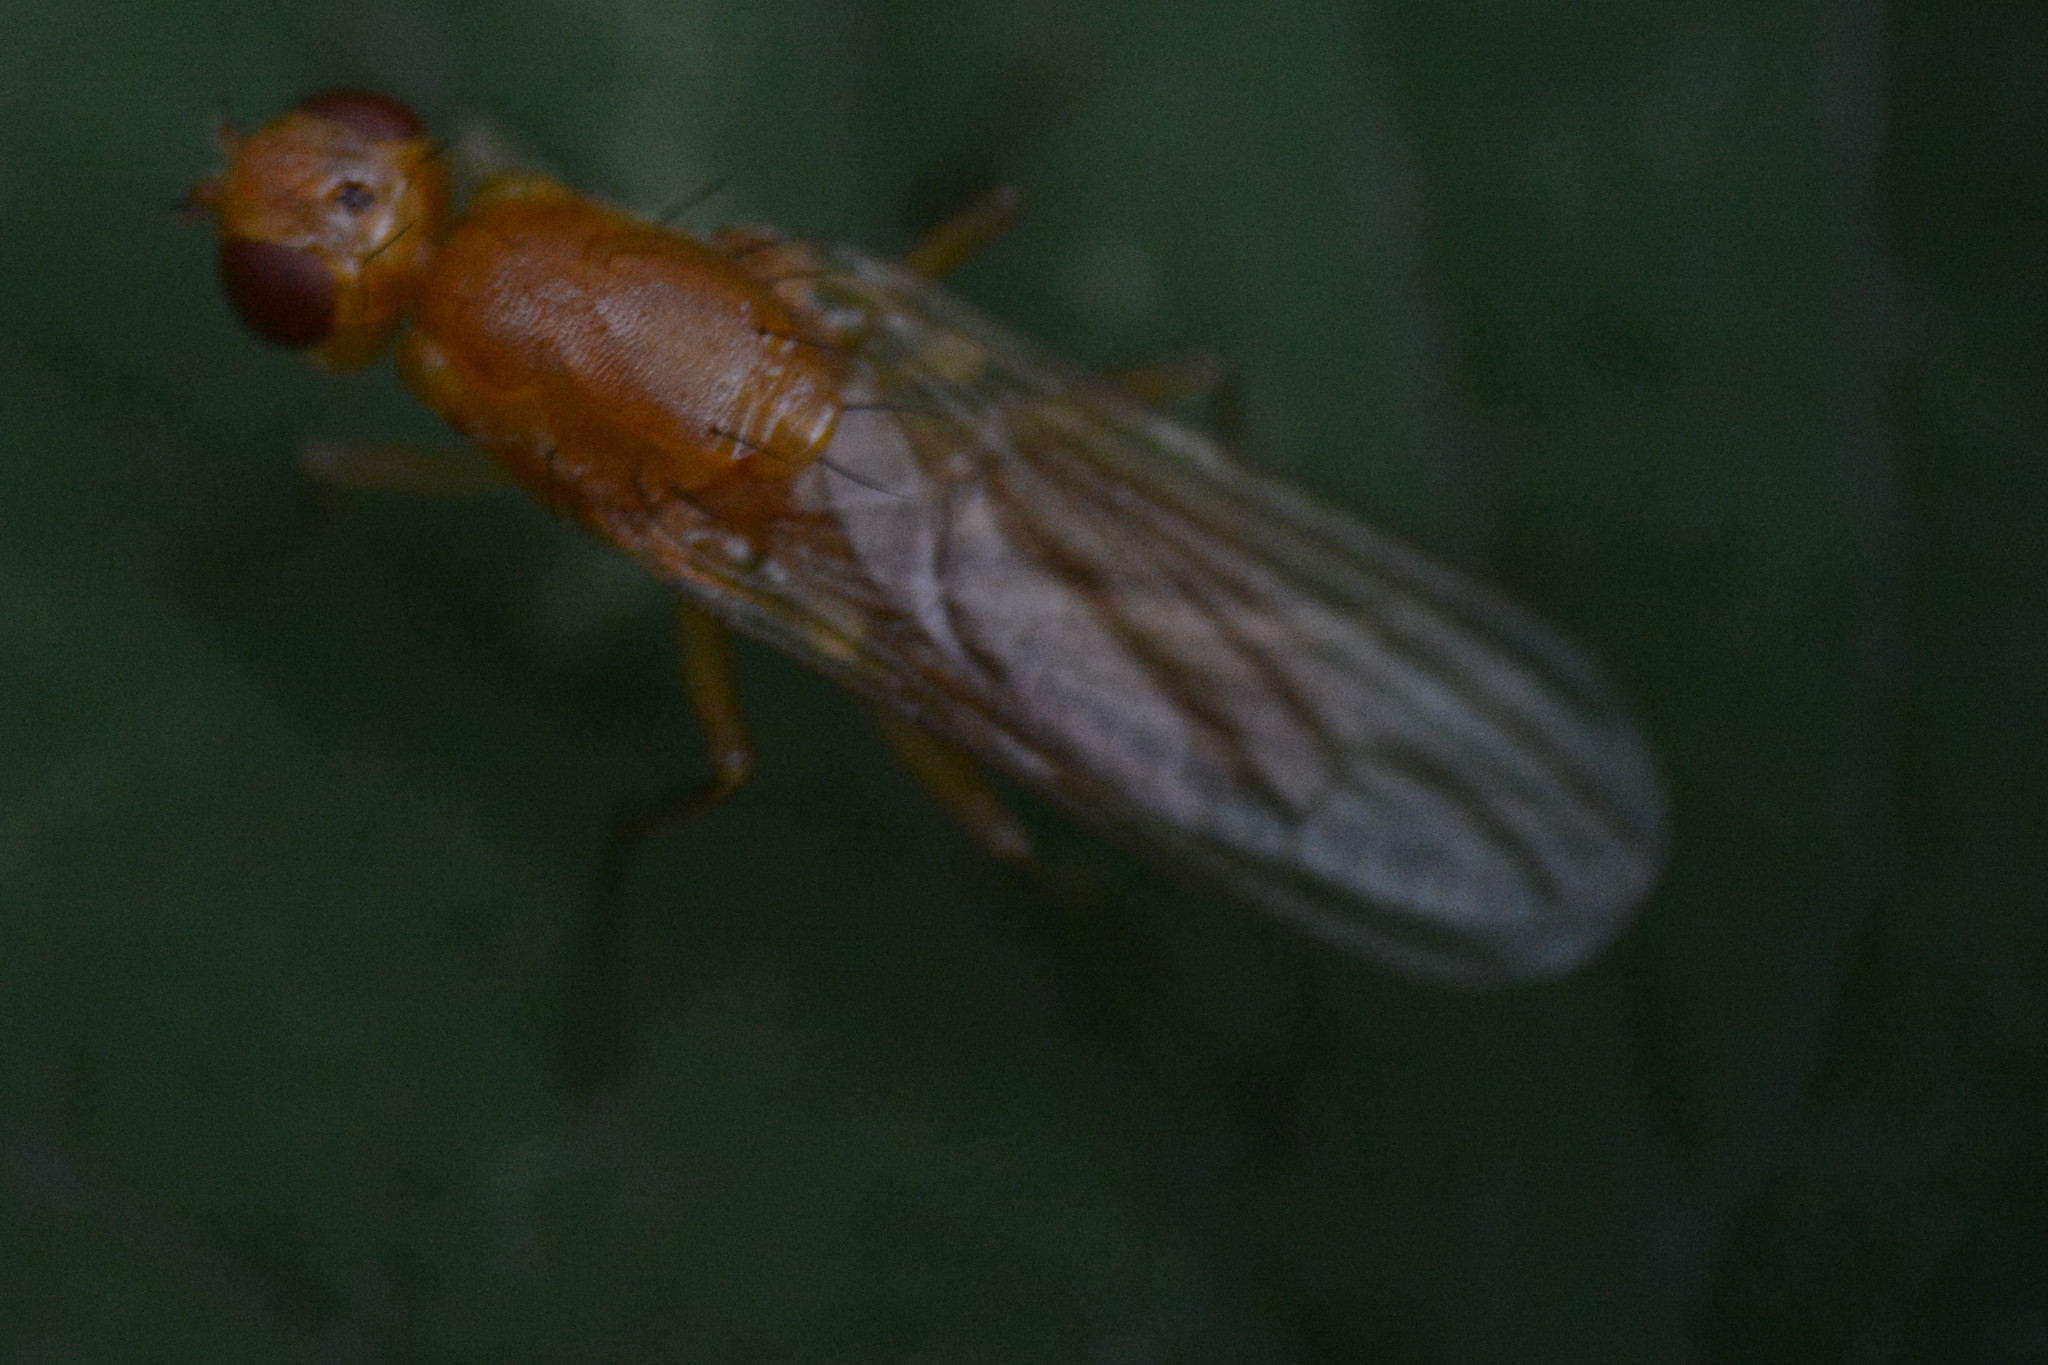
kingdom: Animalia
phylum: Arthropoda
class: Insecta
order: Diptera
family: Psilidae
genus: Psila
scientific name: Psila fimetaria
